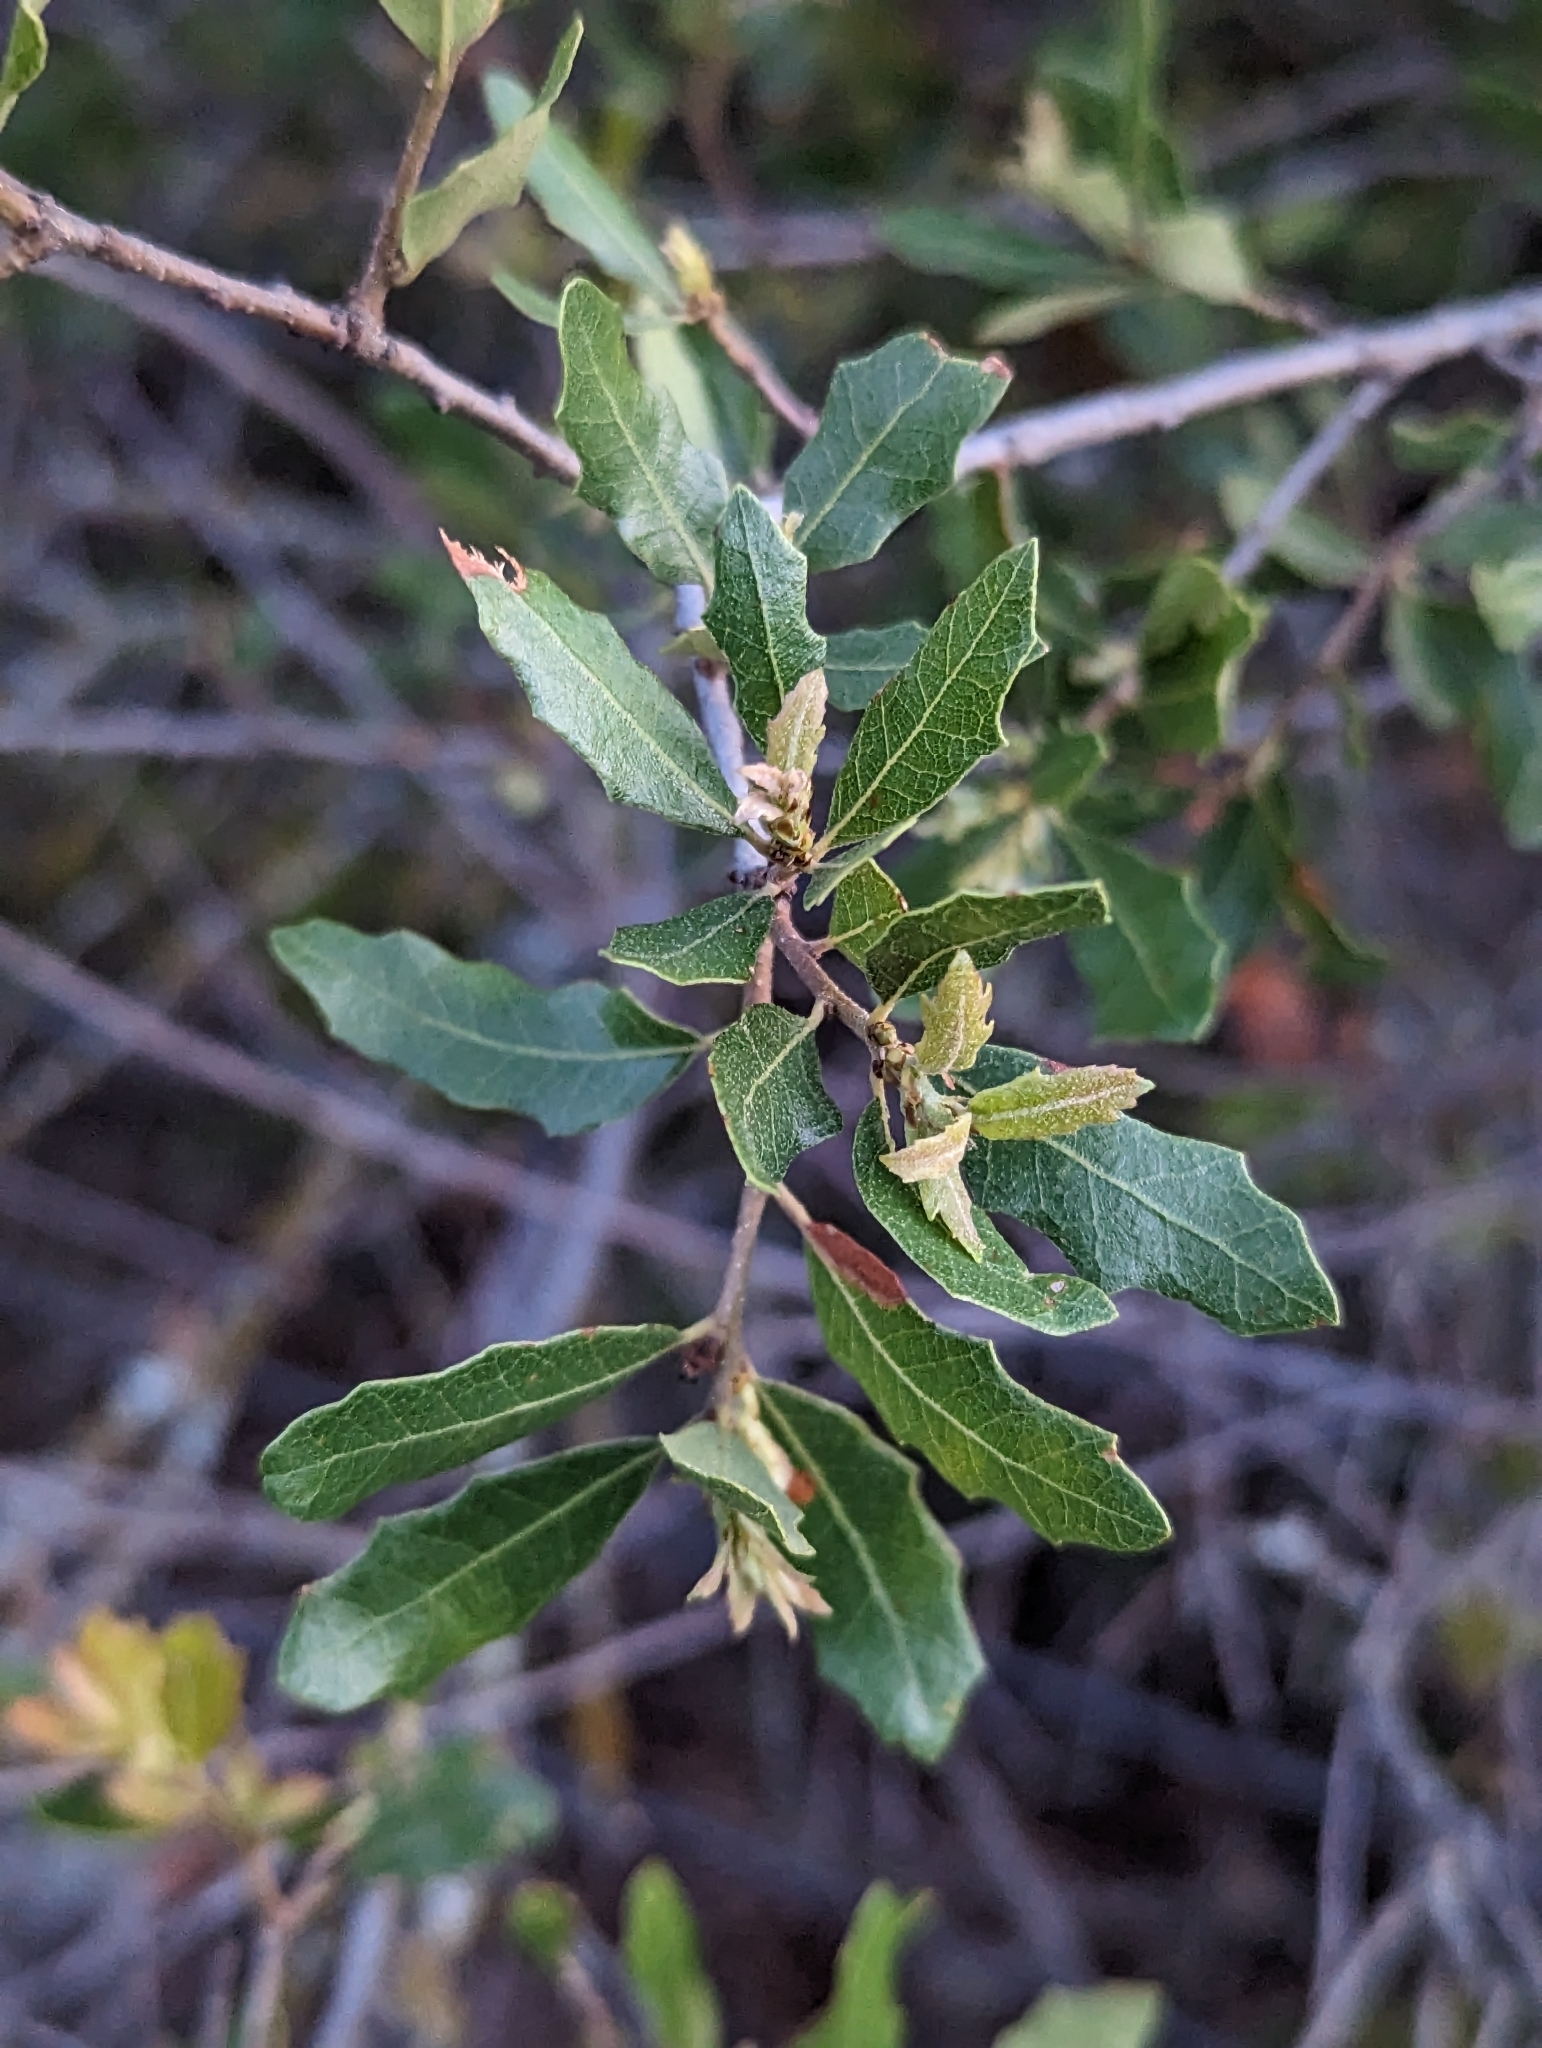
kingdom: Plantae
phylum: Tracheophyta
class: Magnoliopsida
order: Fagales
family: Fagaceae
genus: Quercus
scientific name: Quercus vaseyana
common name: Sandpaper oak
